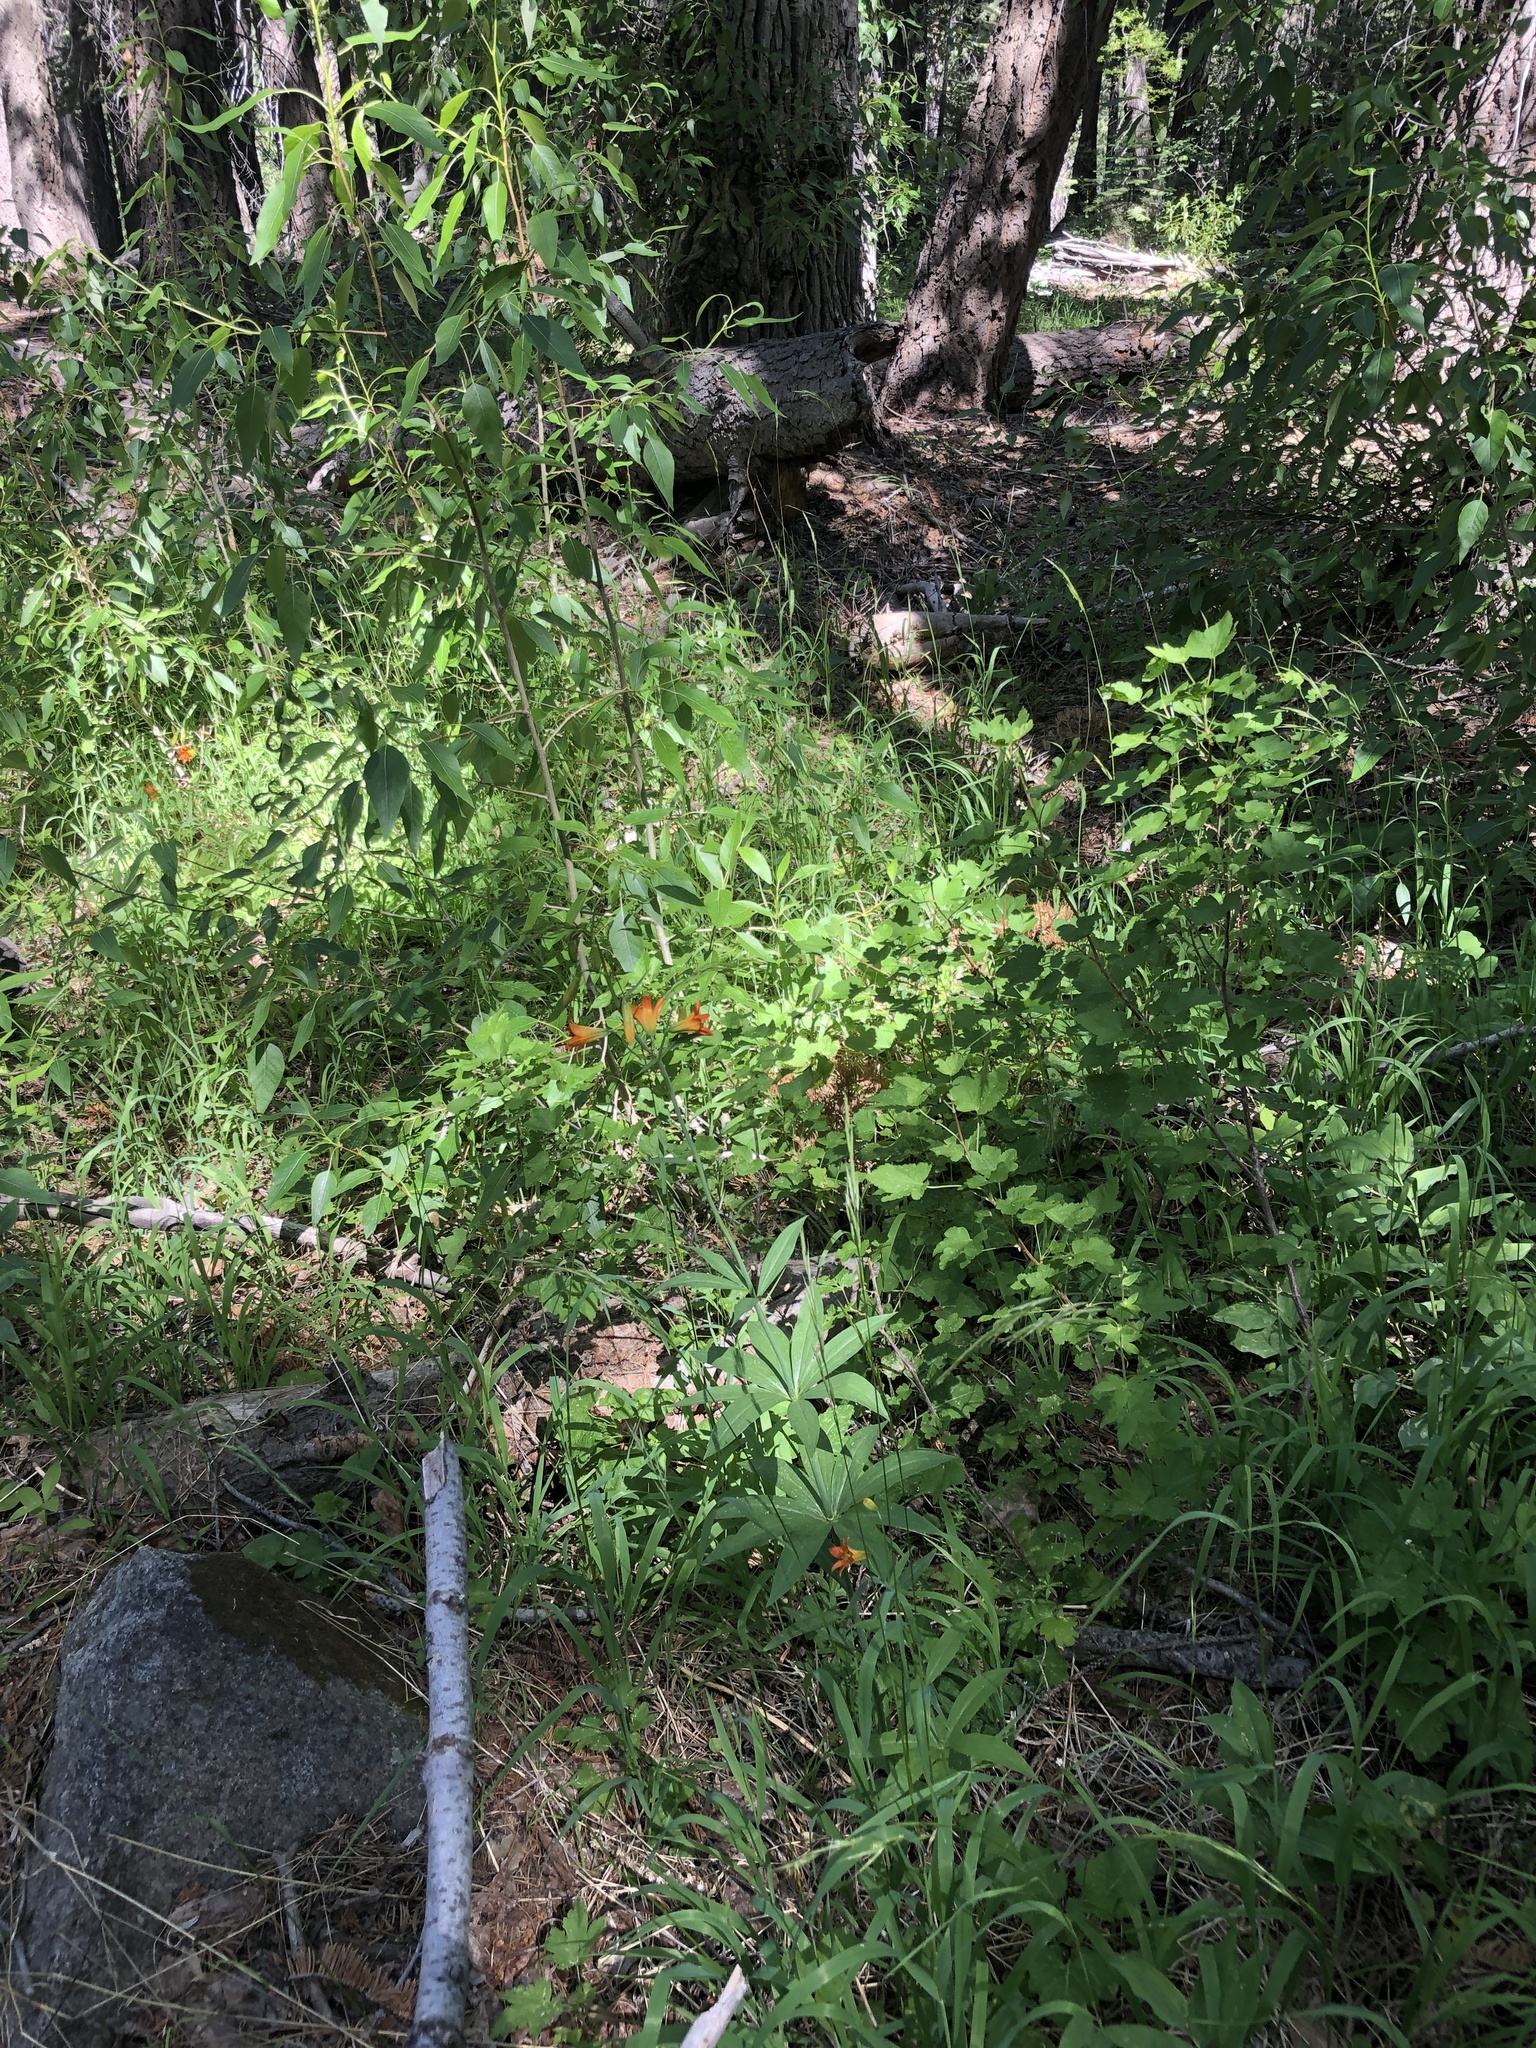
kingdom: Plantae
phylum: Tracheophyta
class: Liliopsida
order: Liliales
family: Liliaceae
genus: Lilium
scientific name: Lilium parvum
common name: Alpine lily
